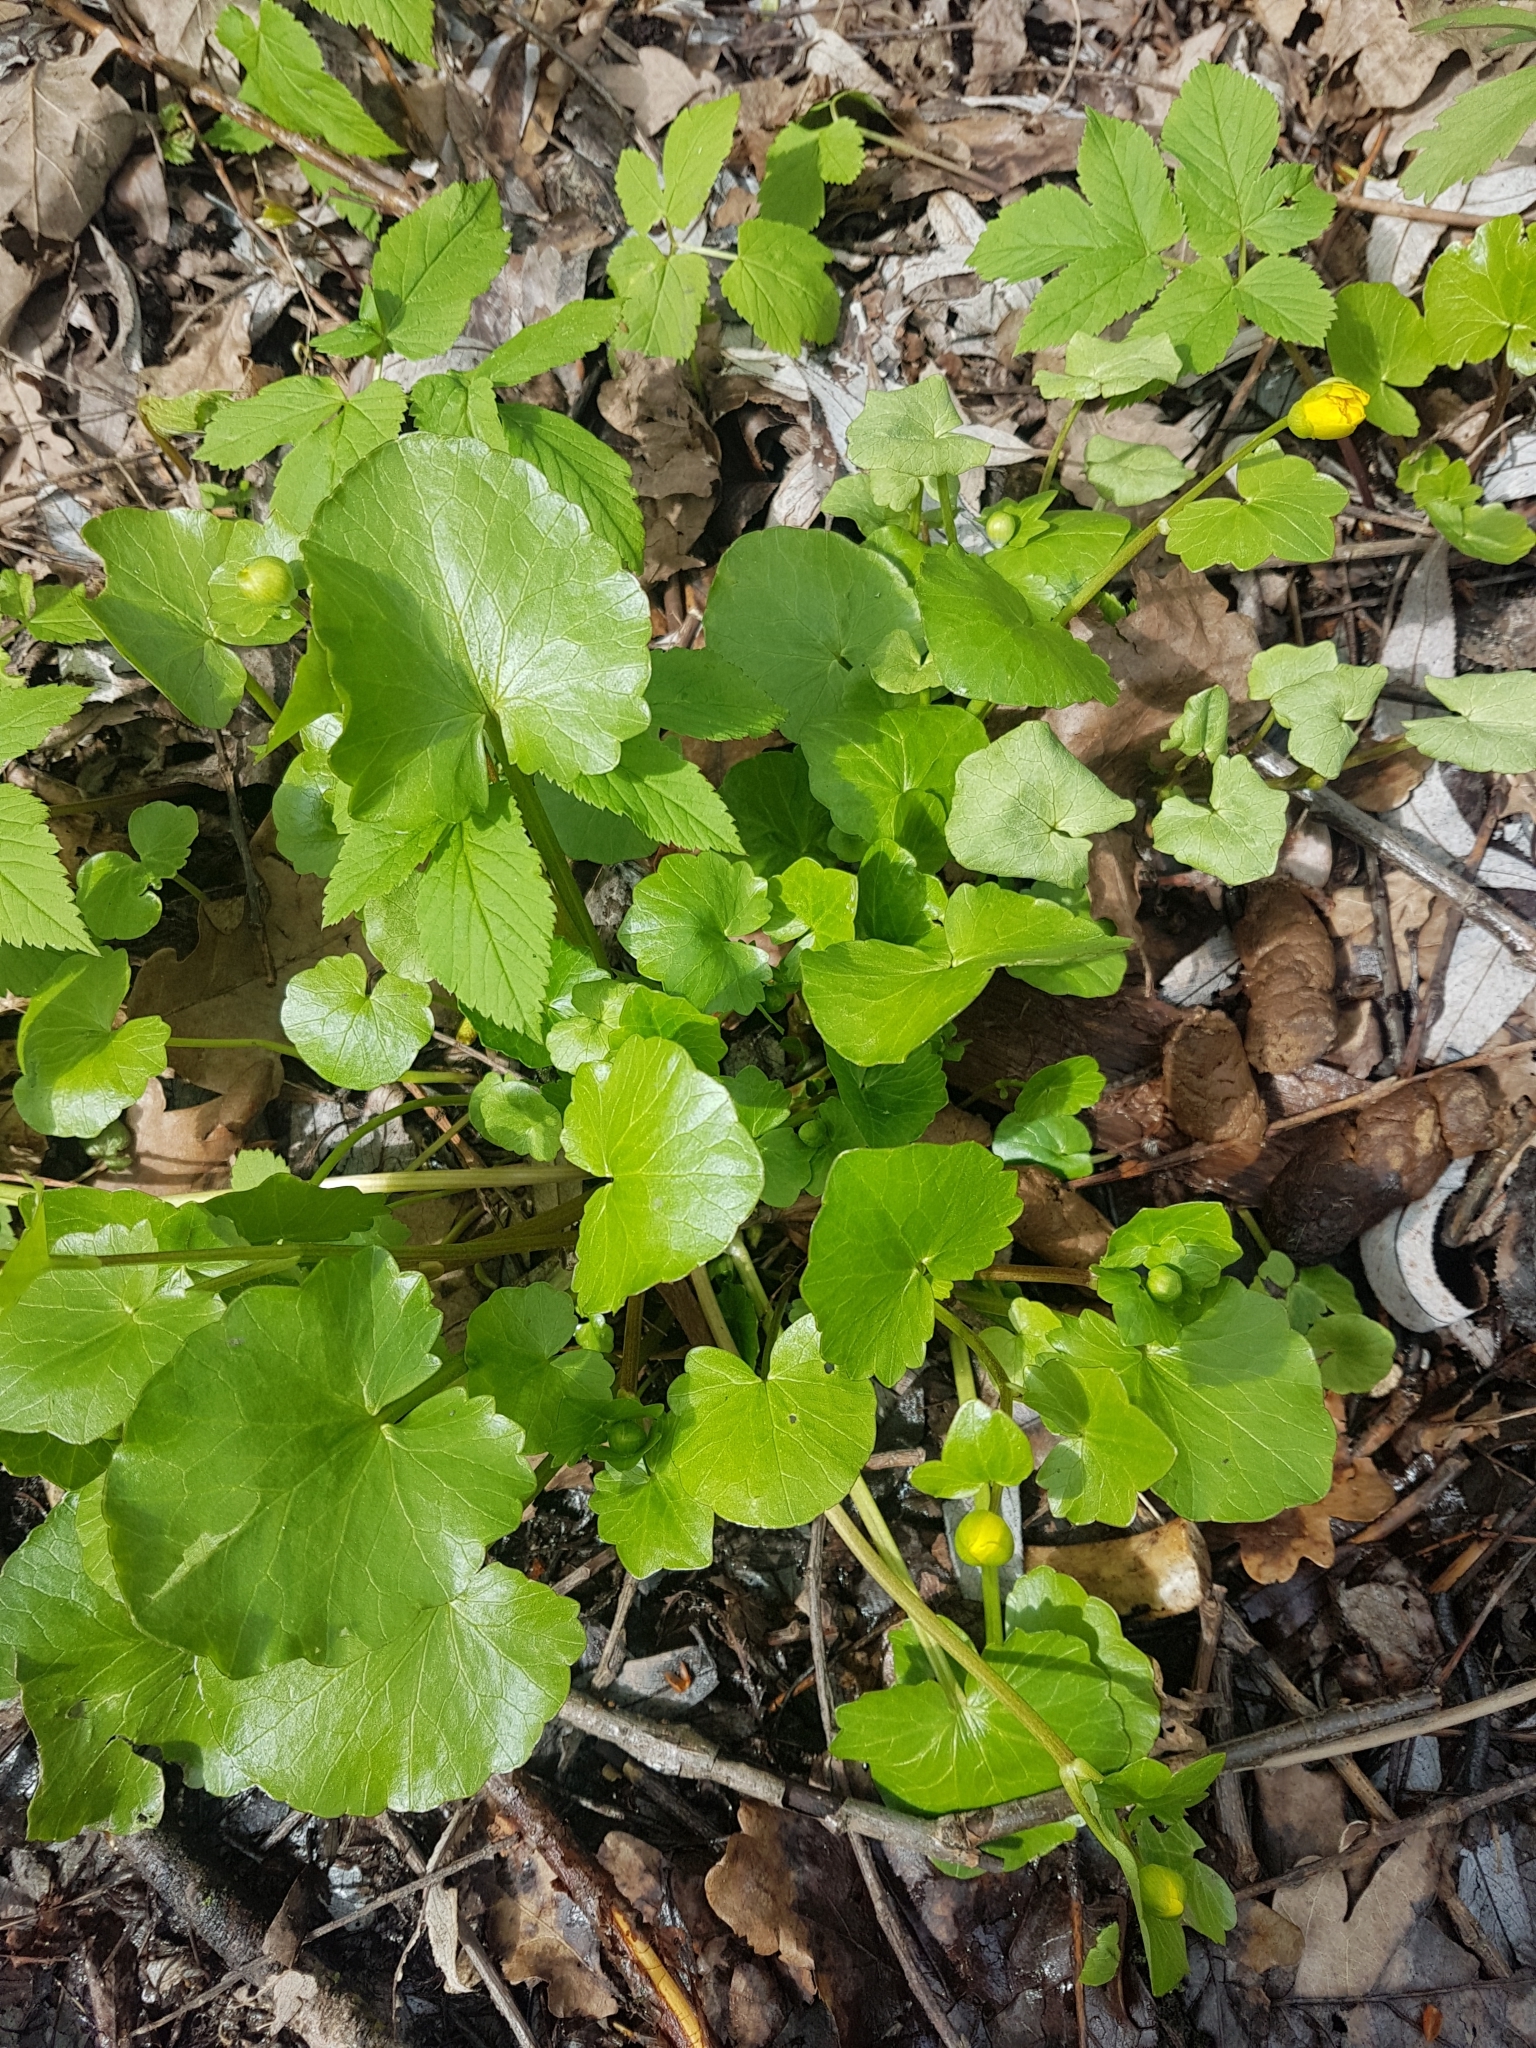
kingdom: Plantae
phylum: Tracheophyta
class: Magnoliopsida
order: Ranunculales
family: Ranunculaceae
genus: Ficaria
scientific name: Ficaria verna
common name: Lesser celandine
